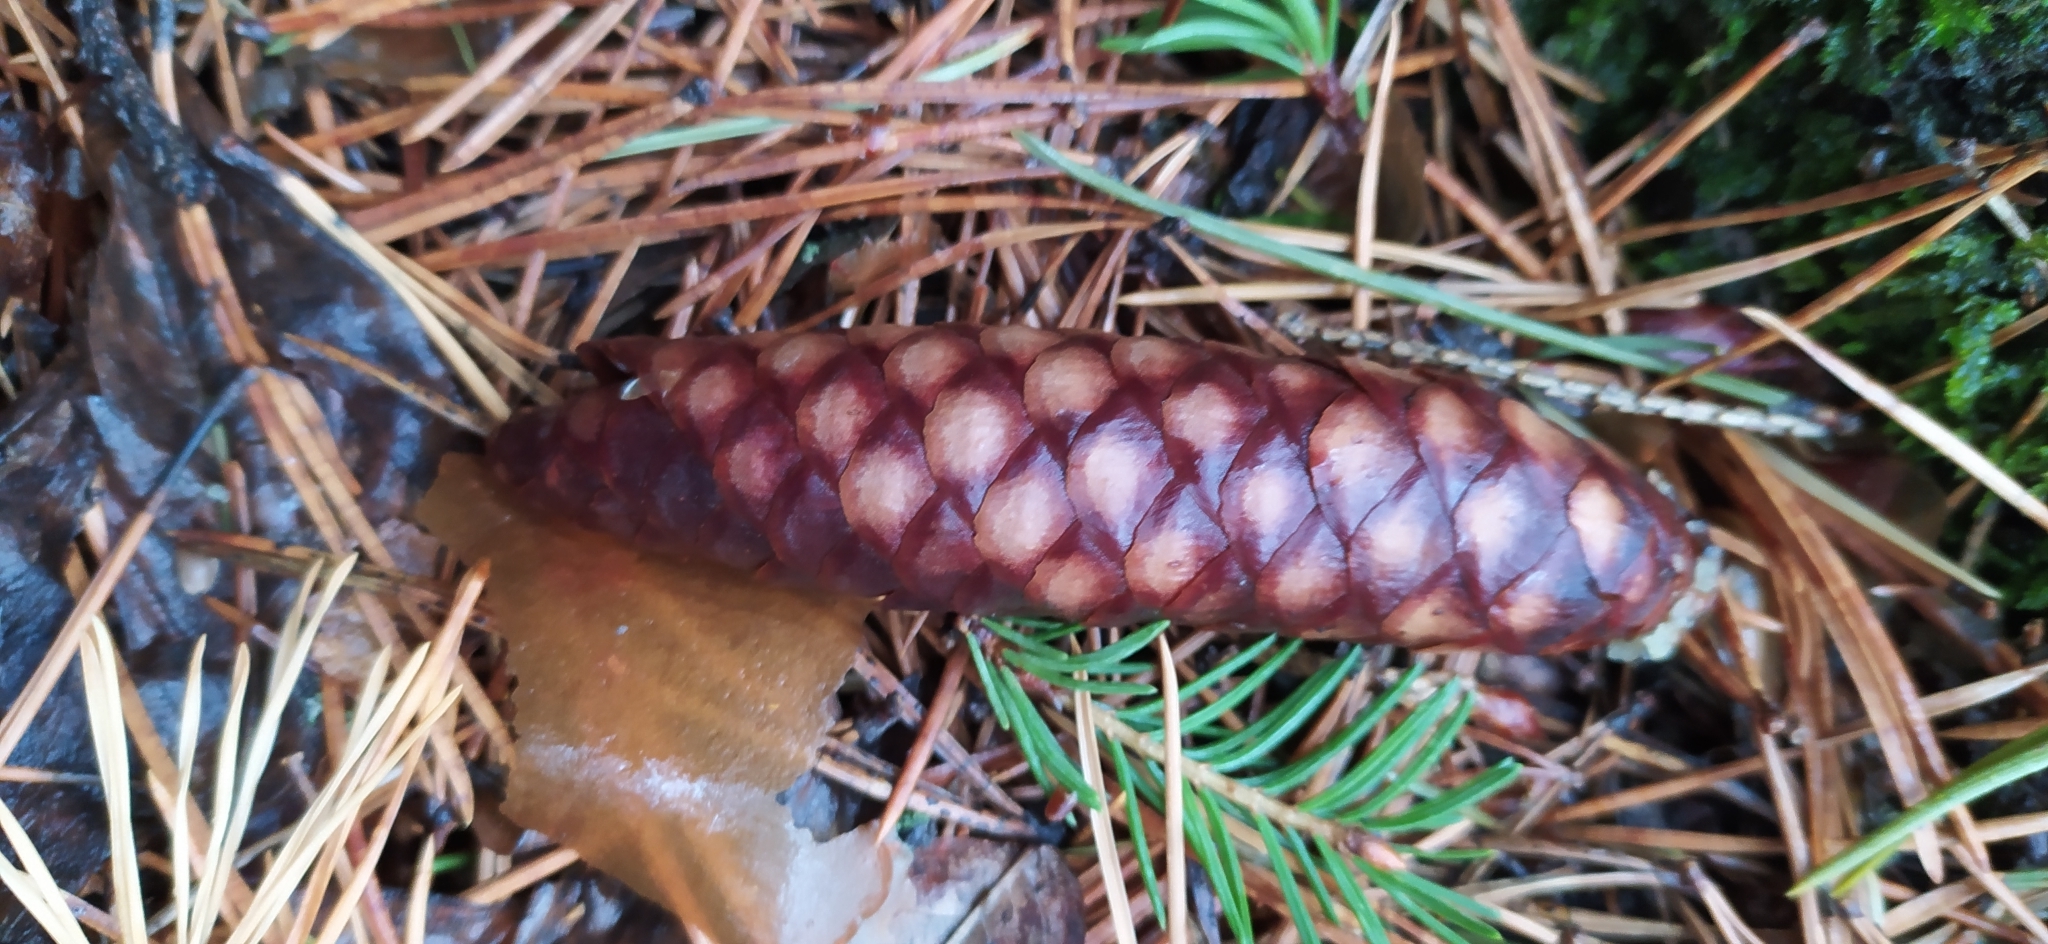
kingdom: Plantae
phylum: Tracheophyta
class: Pinopsida
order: Pinales
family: Pinaceae
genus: Picea
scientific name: Picea obovata
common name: Siberian spruce
